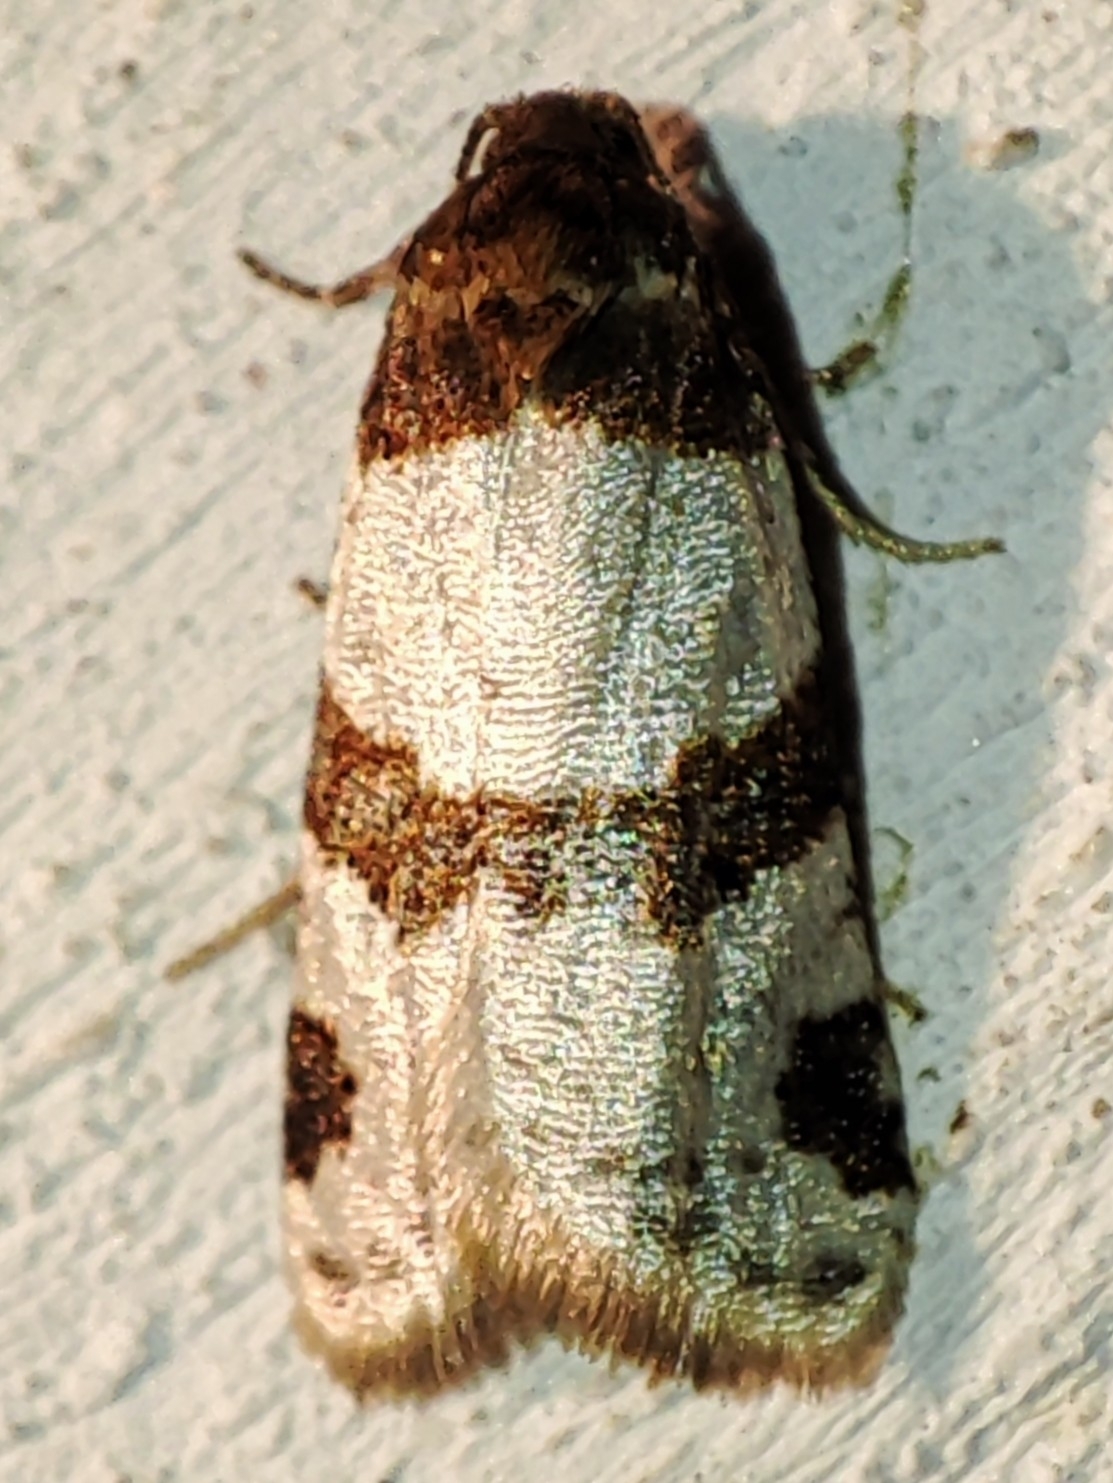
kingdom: Animalia
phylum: Arthropoda
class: Insecta
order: Lepidoptera
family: Tortricidae
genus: Periclepsis
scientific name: Periclepsis cinctana
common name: Dover twist
